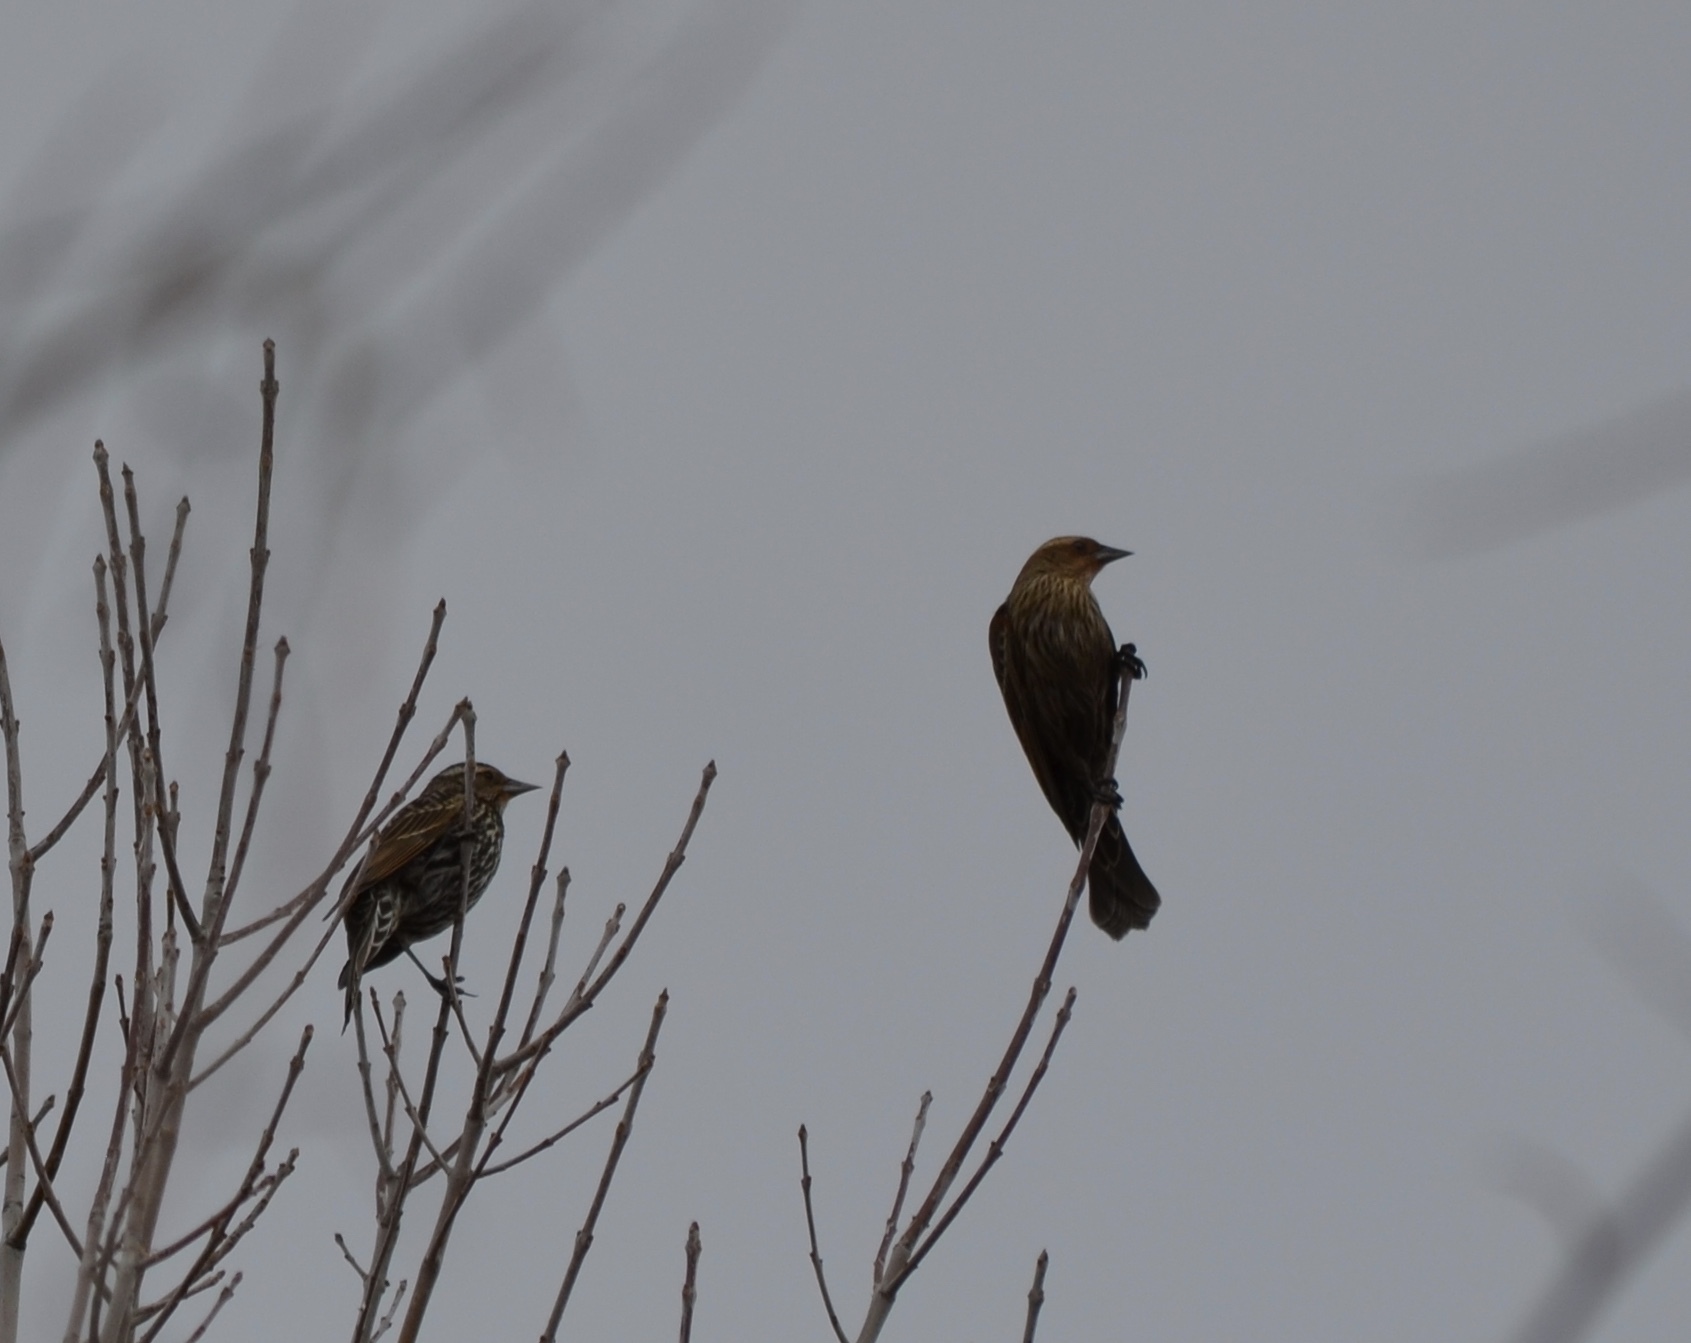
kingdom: Animalia
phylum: Chordata
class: Aves
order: Passeriformes
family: Icteridae
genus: Agelaius
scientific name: Agelaius phoeniceus
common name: Red-winged blackbird
